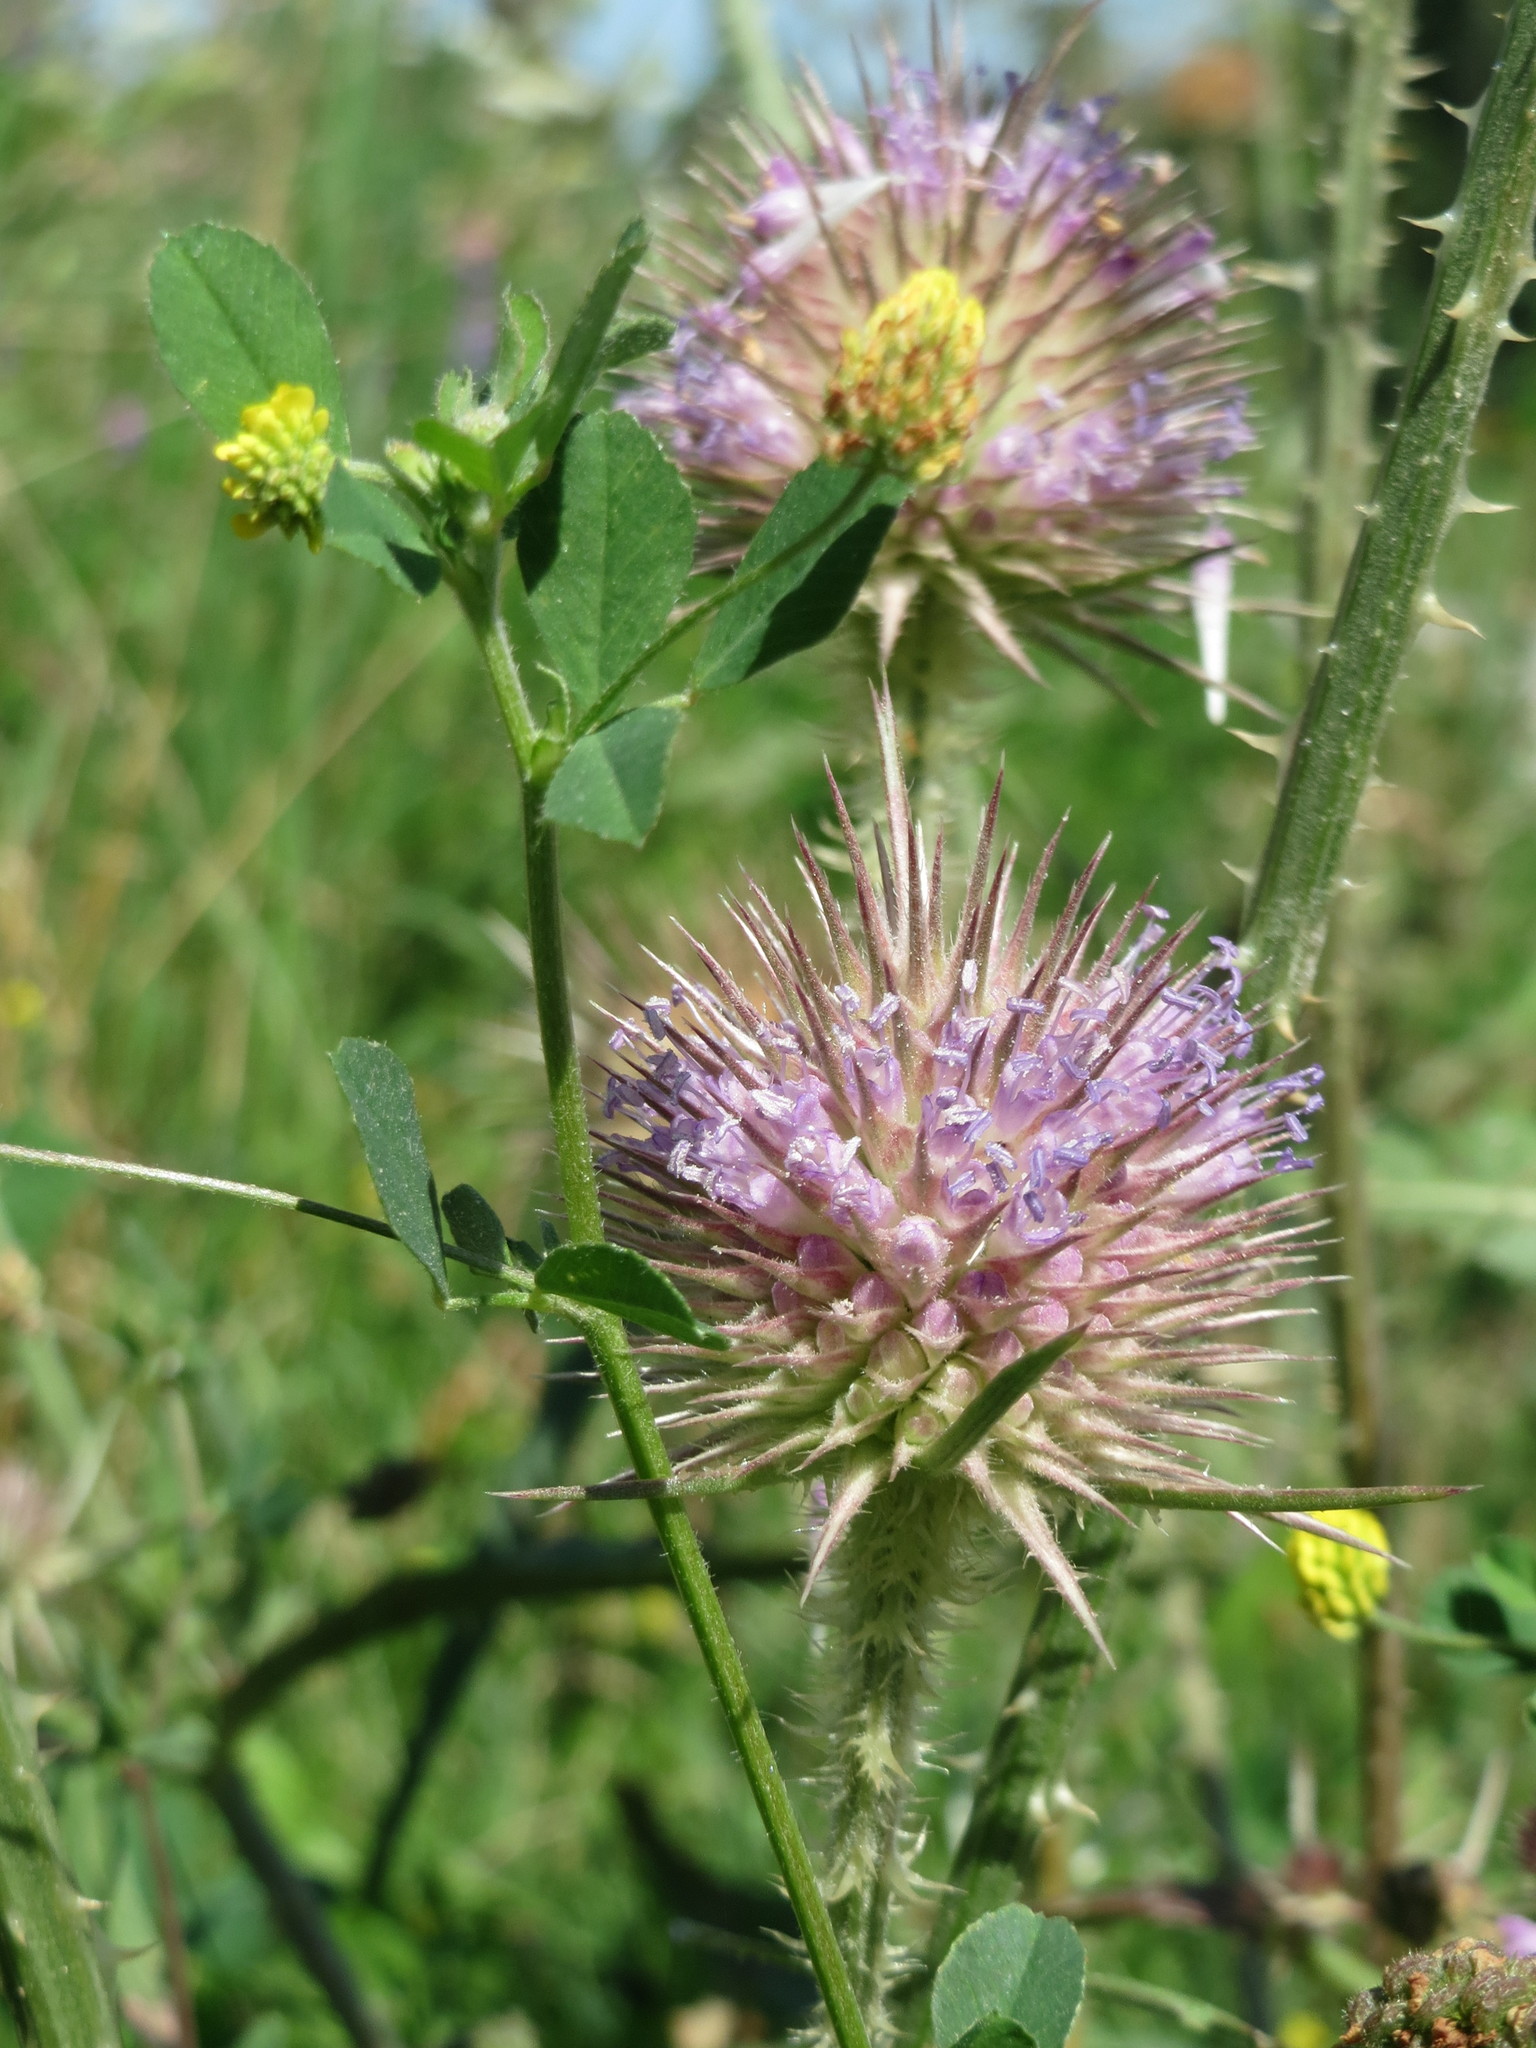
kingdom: Plantae
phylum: Tracheophyta
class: Magnoliopsida
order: Dipsacales
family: Caprifoliaceae
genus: Dipsacus
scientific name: Dipsacus fullonum
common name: Teasel
